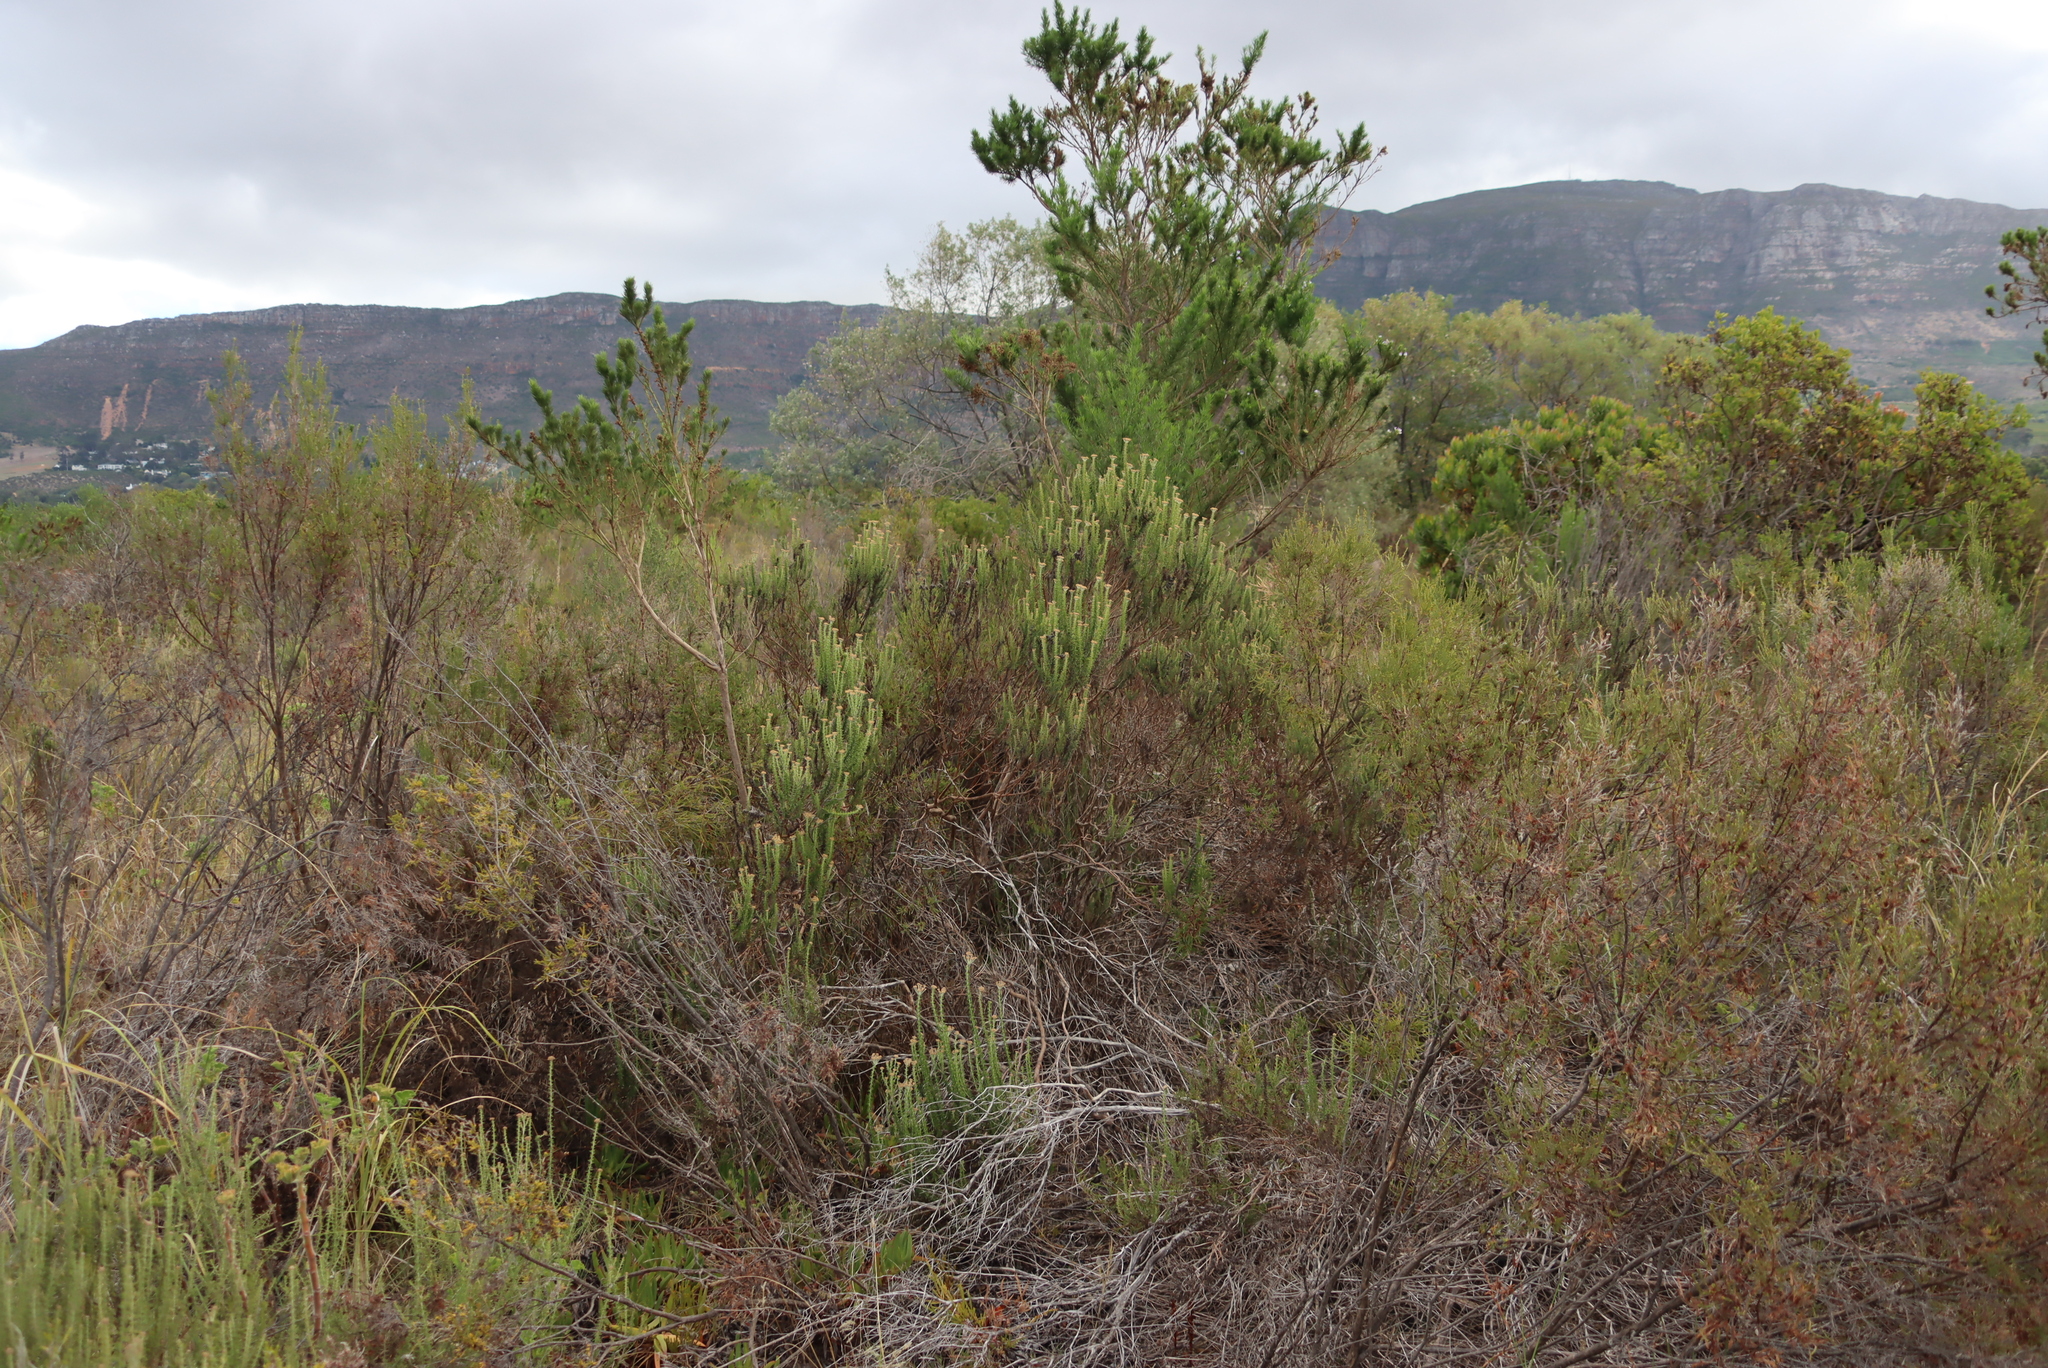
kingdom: Plantae
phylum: Tracheophyta
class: Magnoliopsida
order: Asterales
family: Asteraceae
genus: Metalasia
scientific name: Metalasia densa
